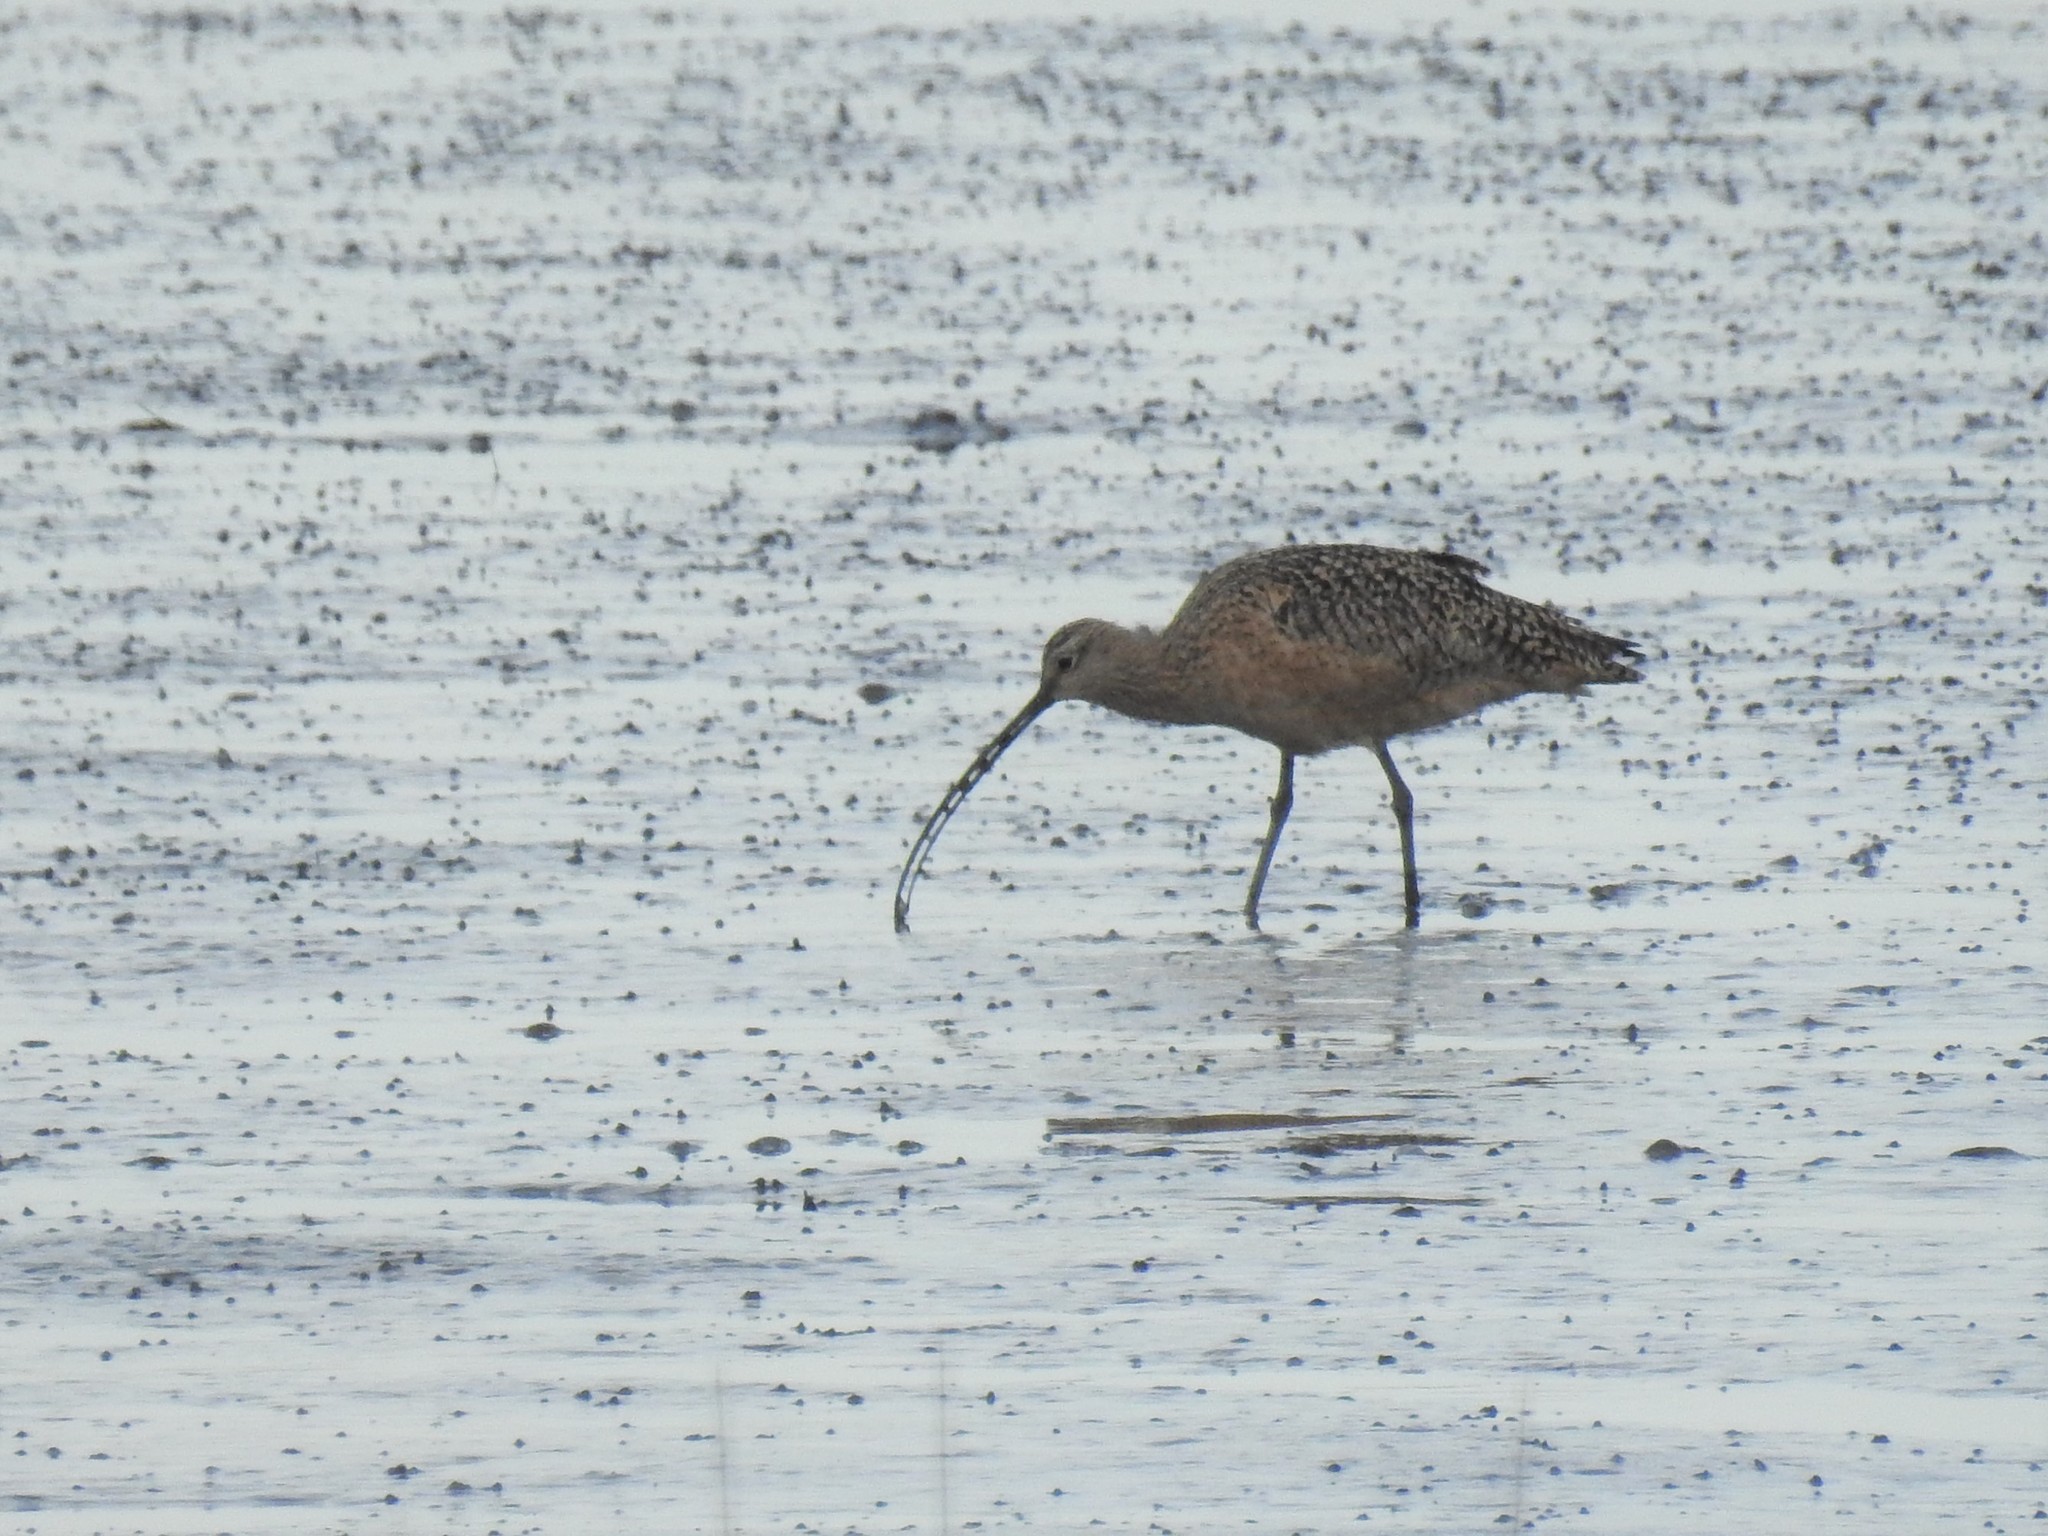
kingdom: Animalia
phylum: Chordata
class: Aves
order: Charadriiformes
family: Scolopacidae
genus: Numenius
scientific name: Numenius americanus
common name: Long-billed curlew
